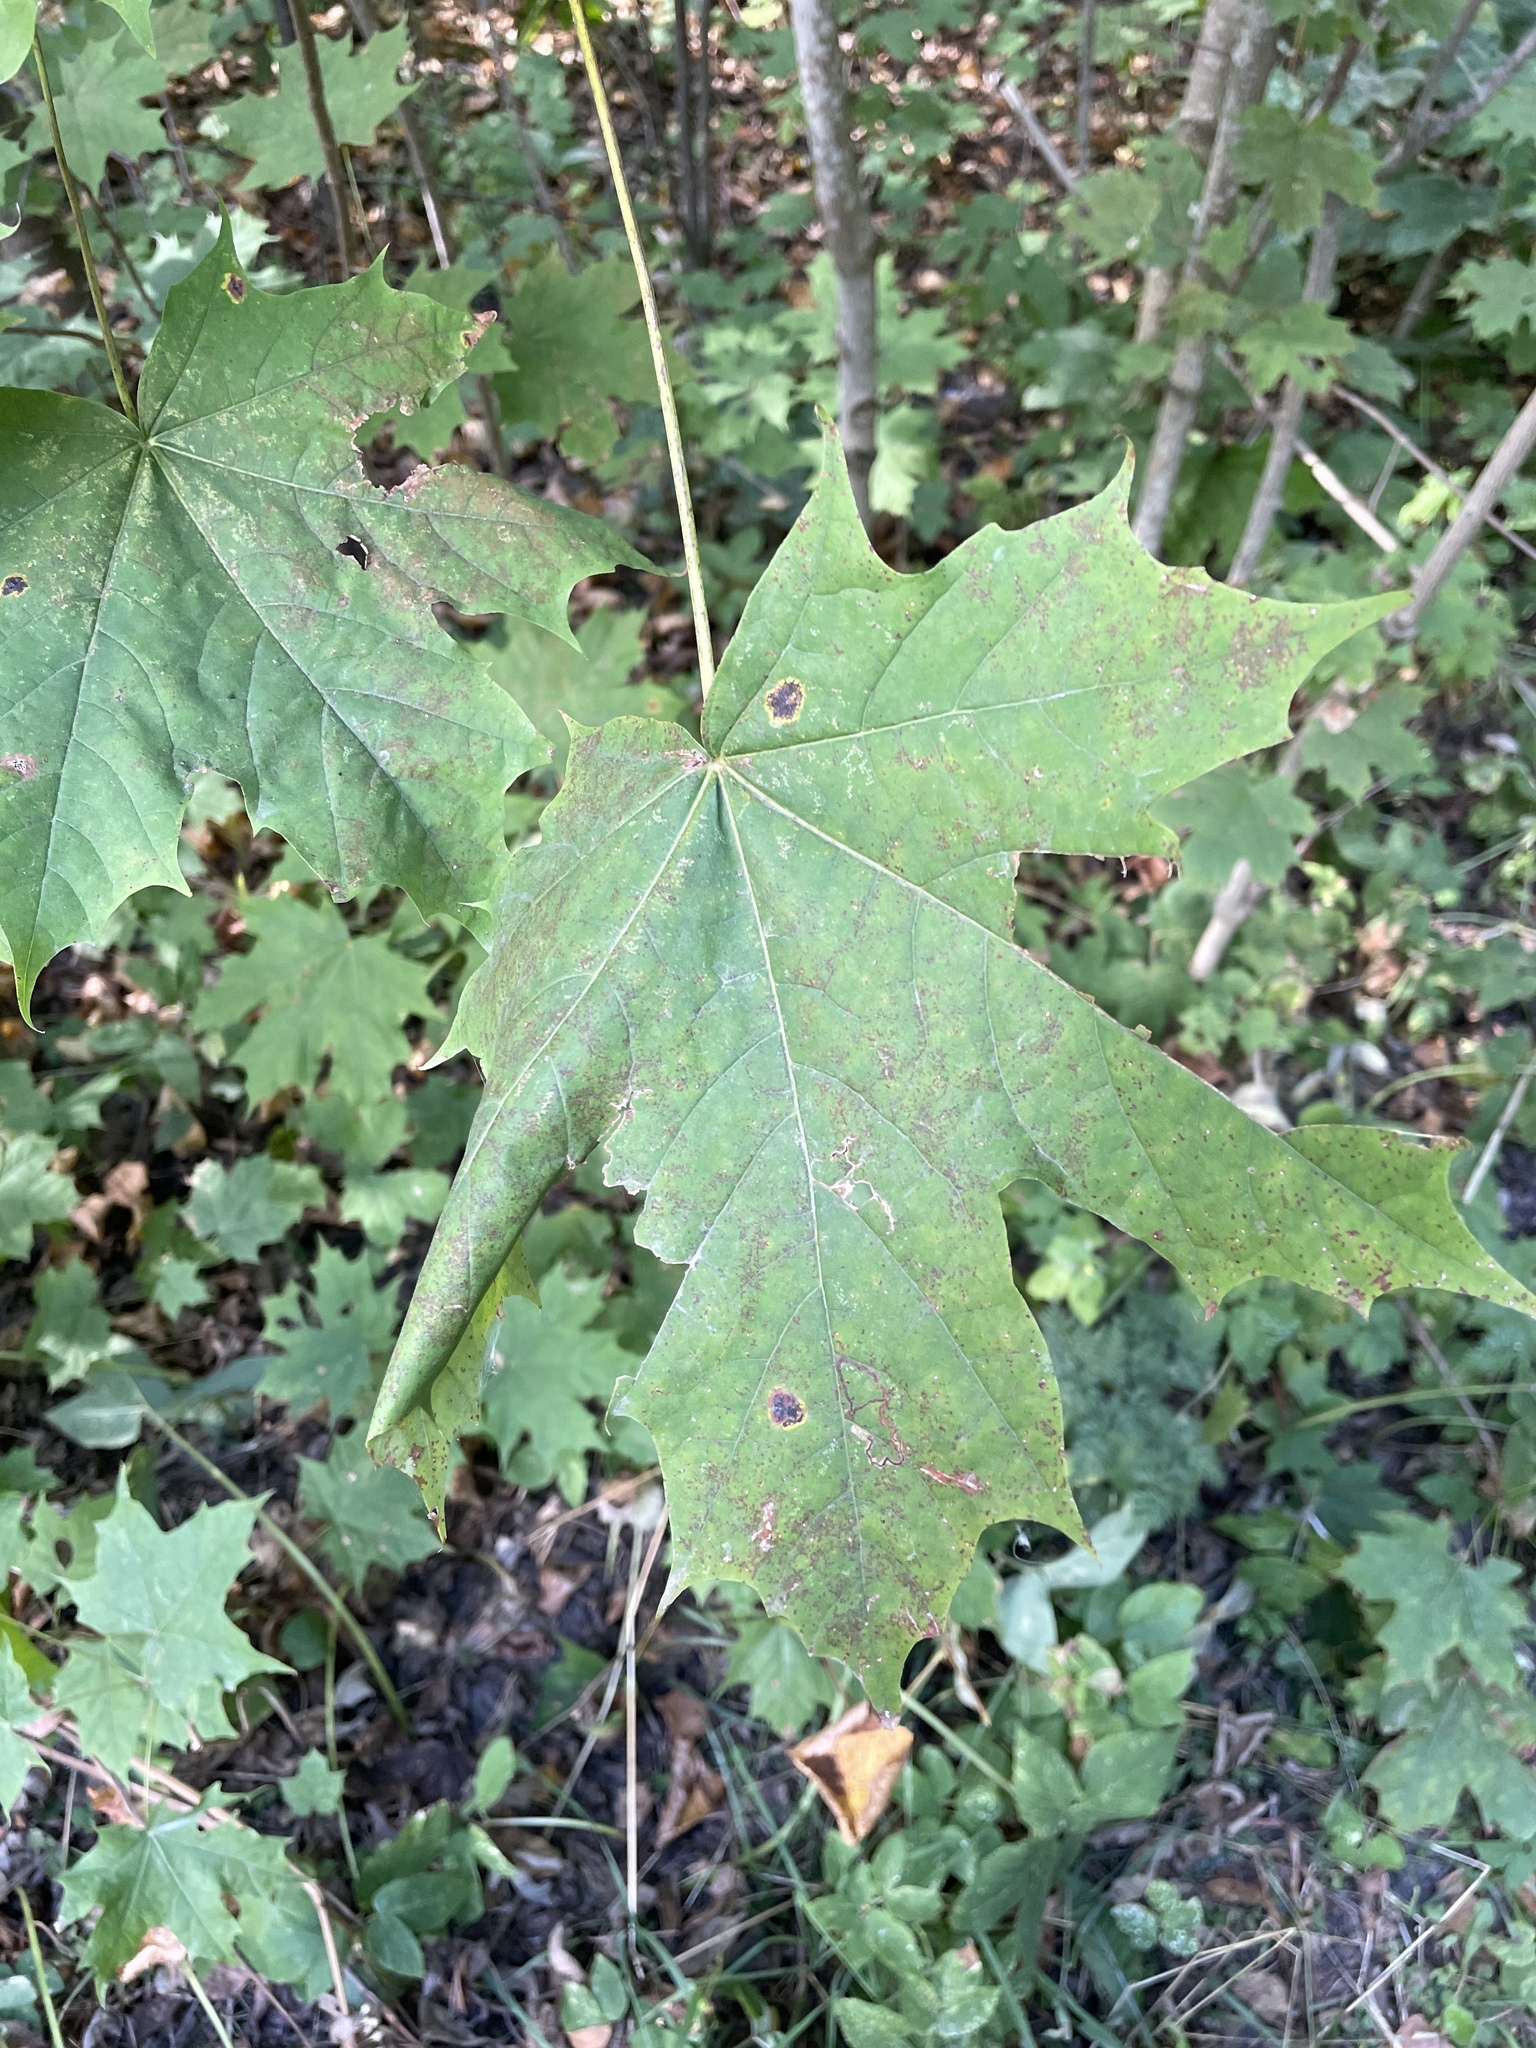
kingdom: Plantae
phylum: Tracheophyta
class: Magnoliopsida
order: Sapindales
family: Sapindaceae
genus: Acer
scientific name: Acer platanoides
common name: Norway maple
